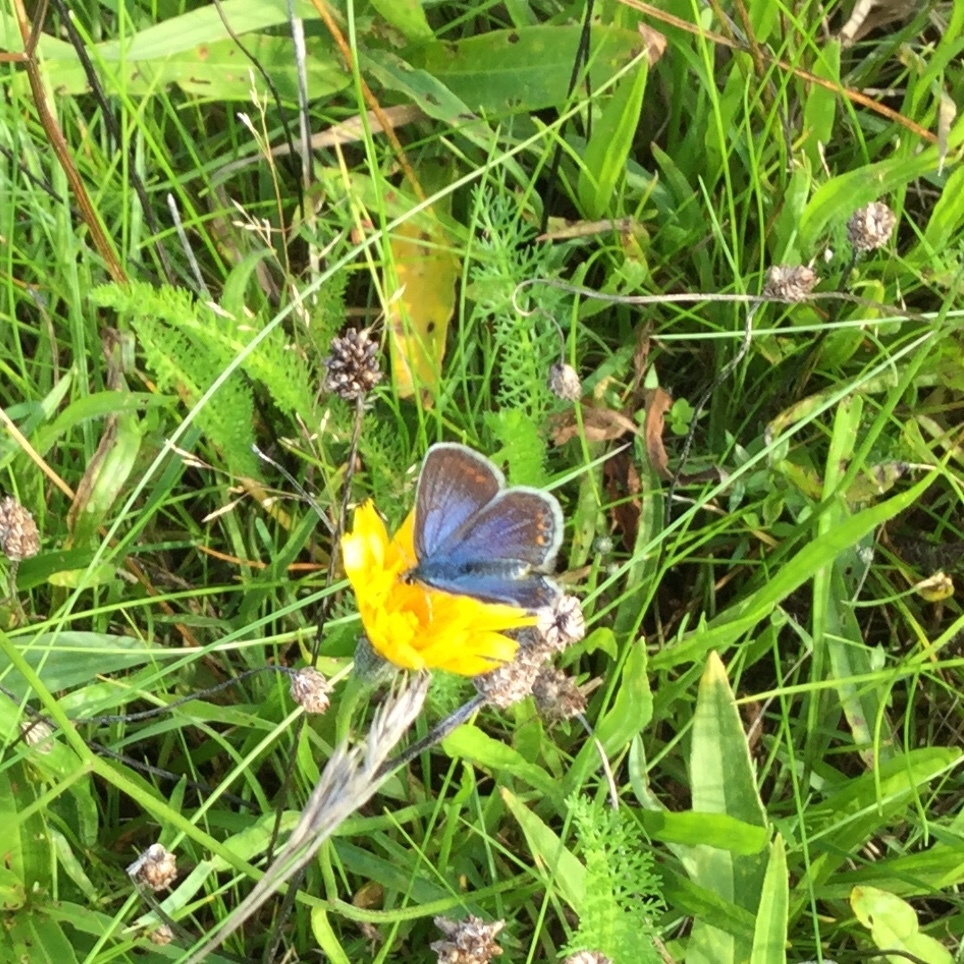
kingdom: Animalia
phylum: Arthropoda
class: Insecta
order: Lepidoptera
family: Lycaenidae
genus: Polyommatus
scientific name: Polyommatus icarus
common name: Common blue
